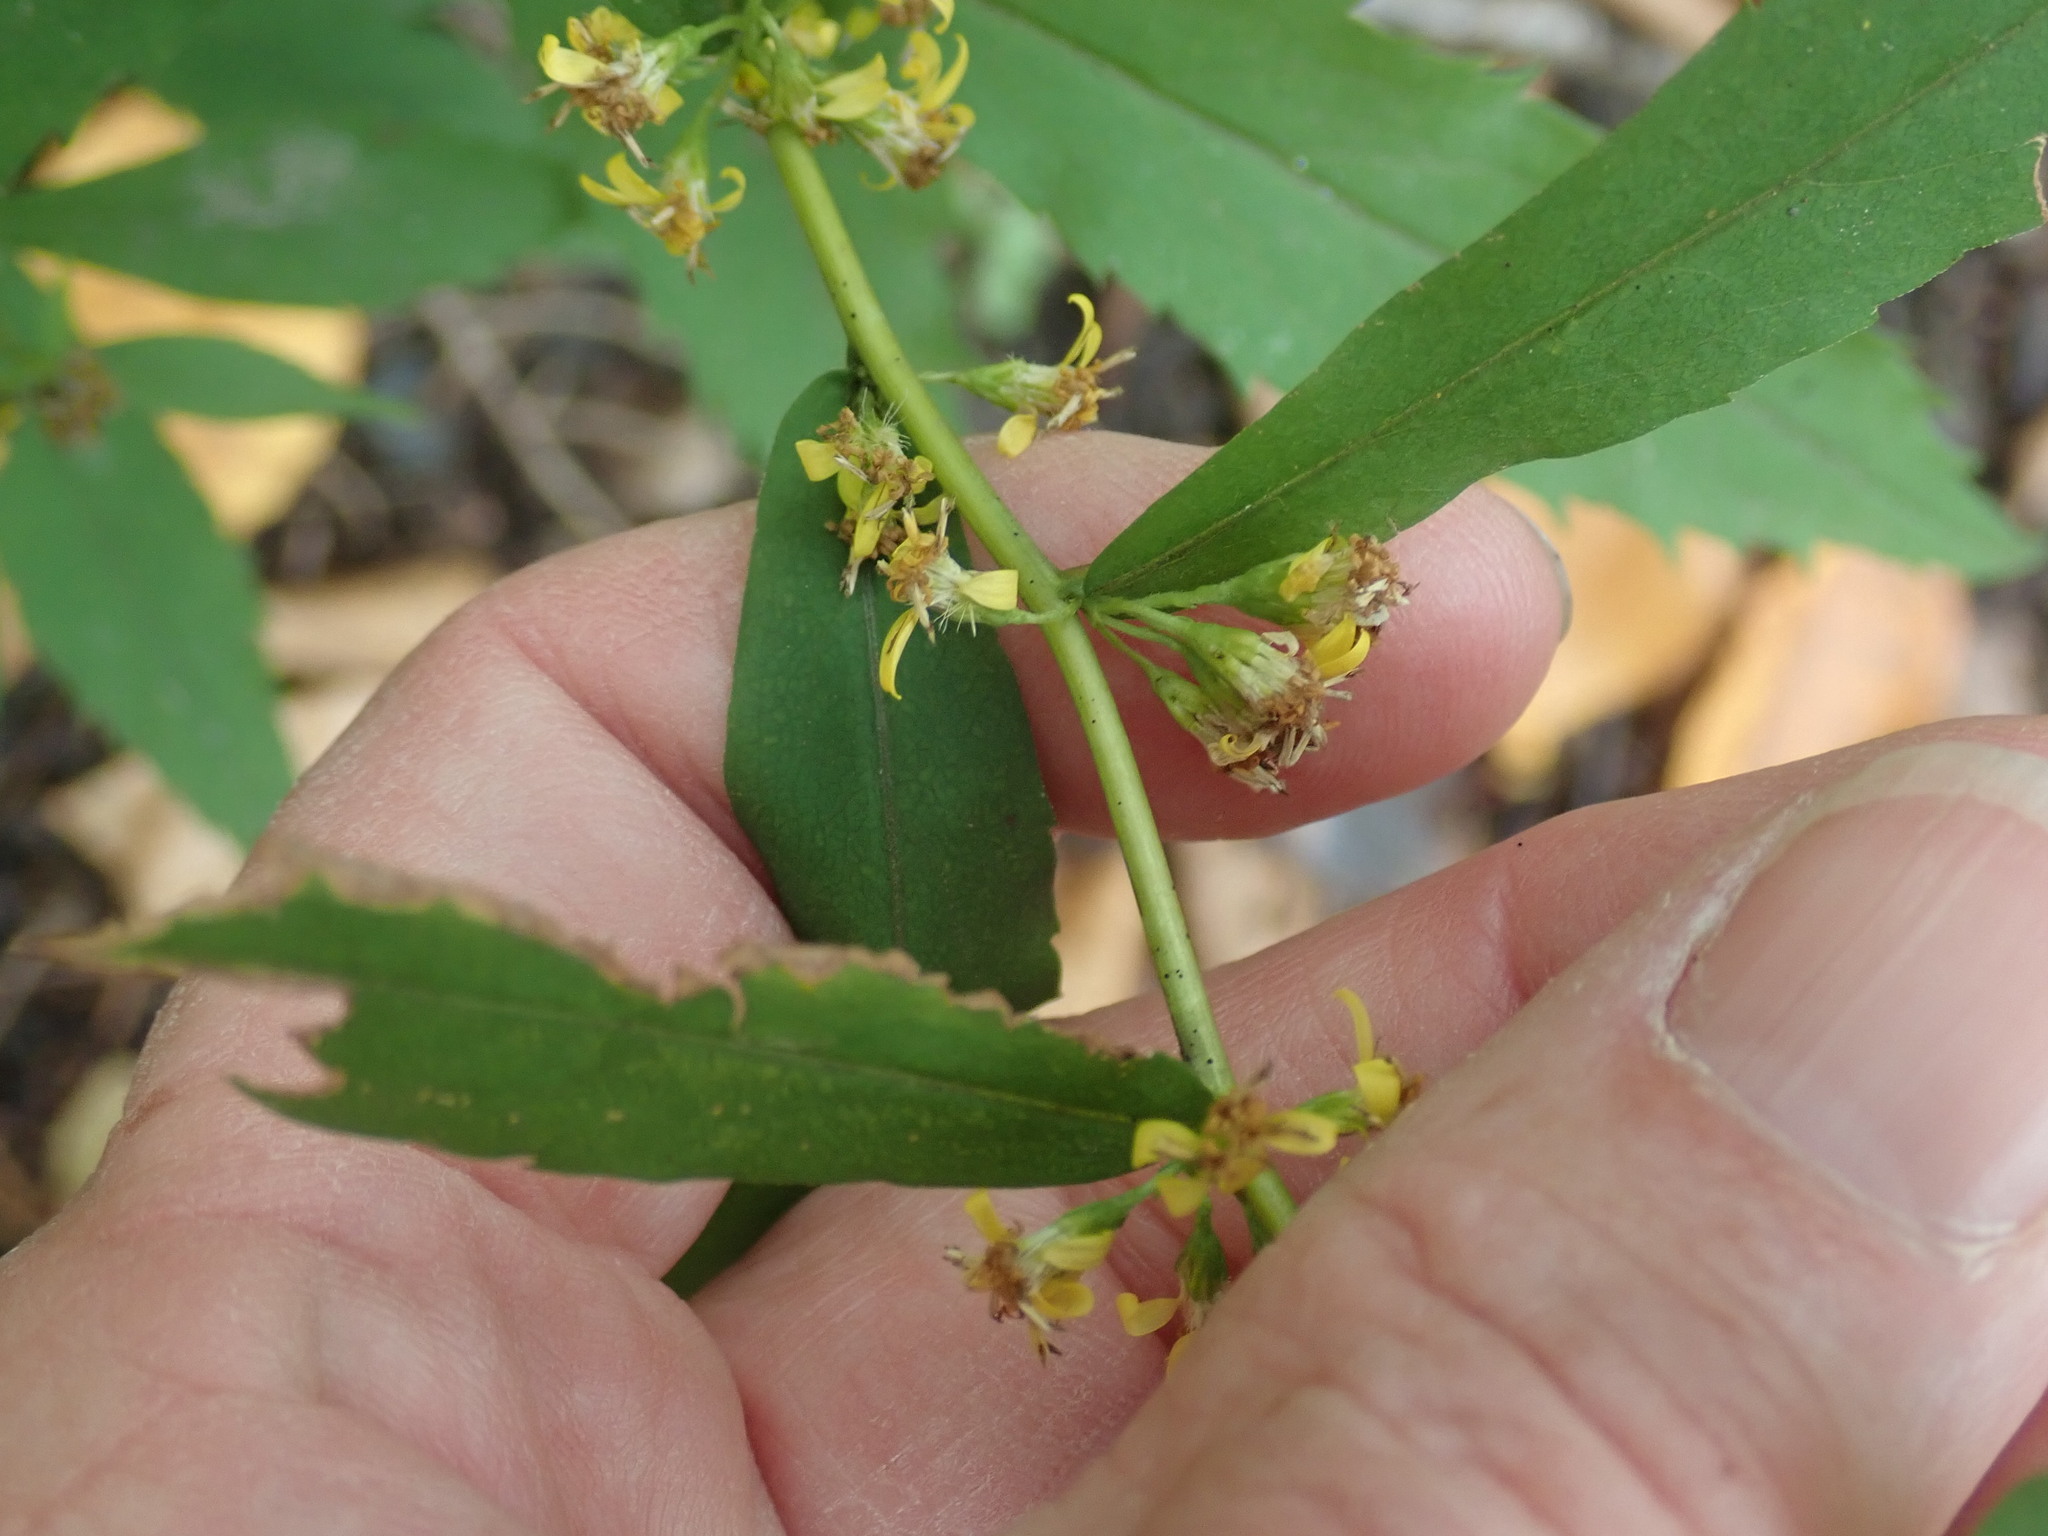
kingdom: Plantae
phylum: Tracheophyta
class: Magnoliopsida
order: Asterales
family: Asteraceae
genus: Solidago
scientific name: Solidago caesia
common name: Woodland goldenrod
